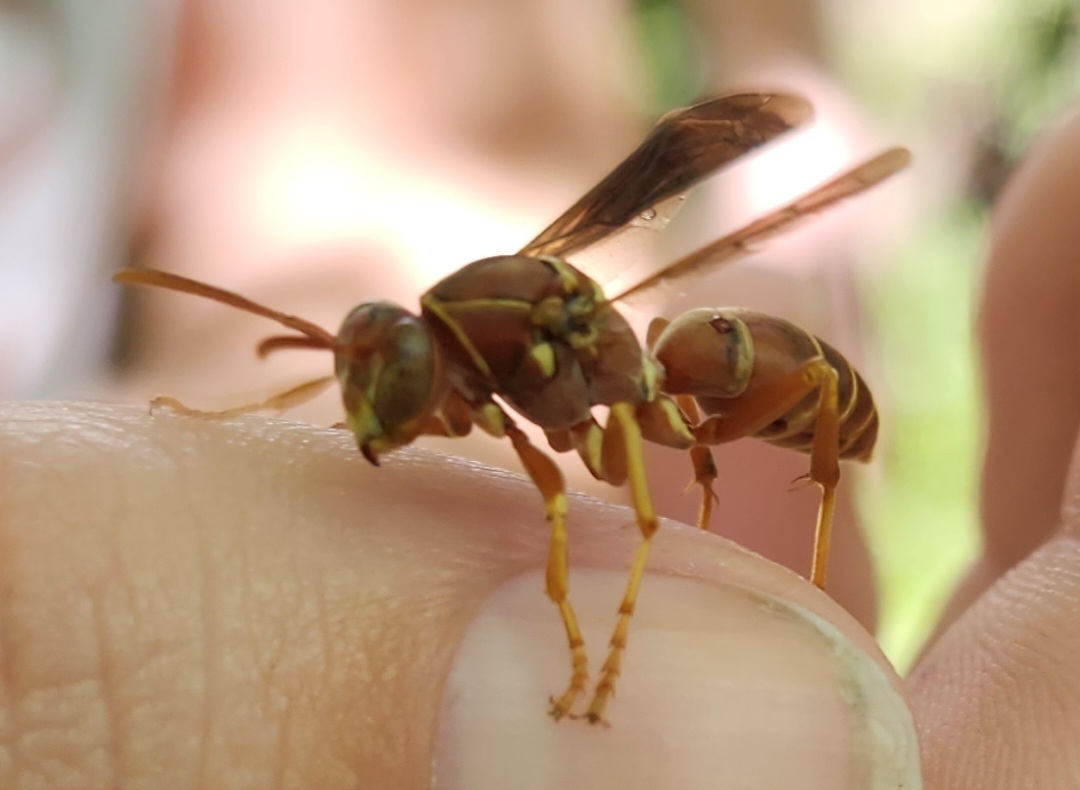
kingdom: Animalia
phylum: Arthropoda
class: Insecta
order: Hymenoptera
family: Eumenidae
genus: Polistes
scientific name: Polistes bellicosus
